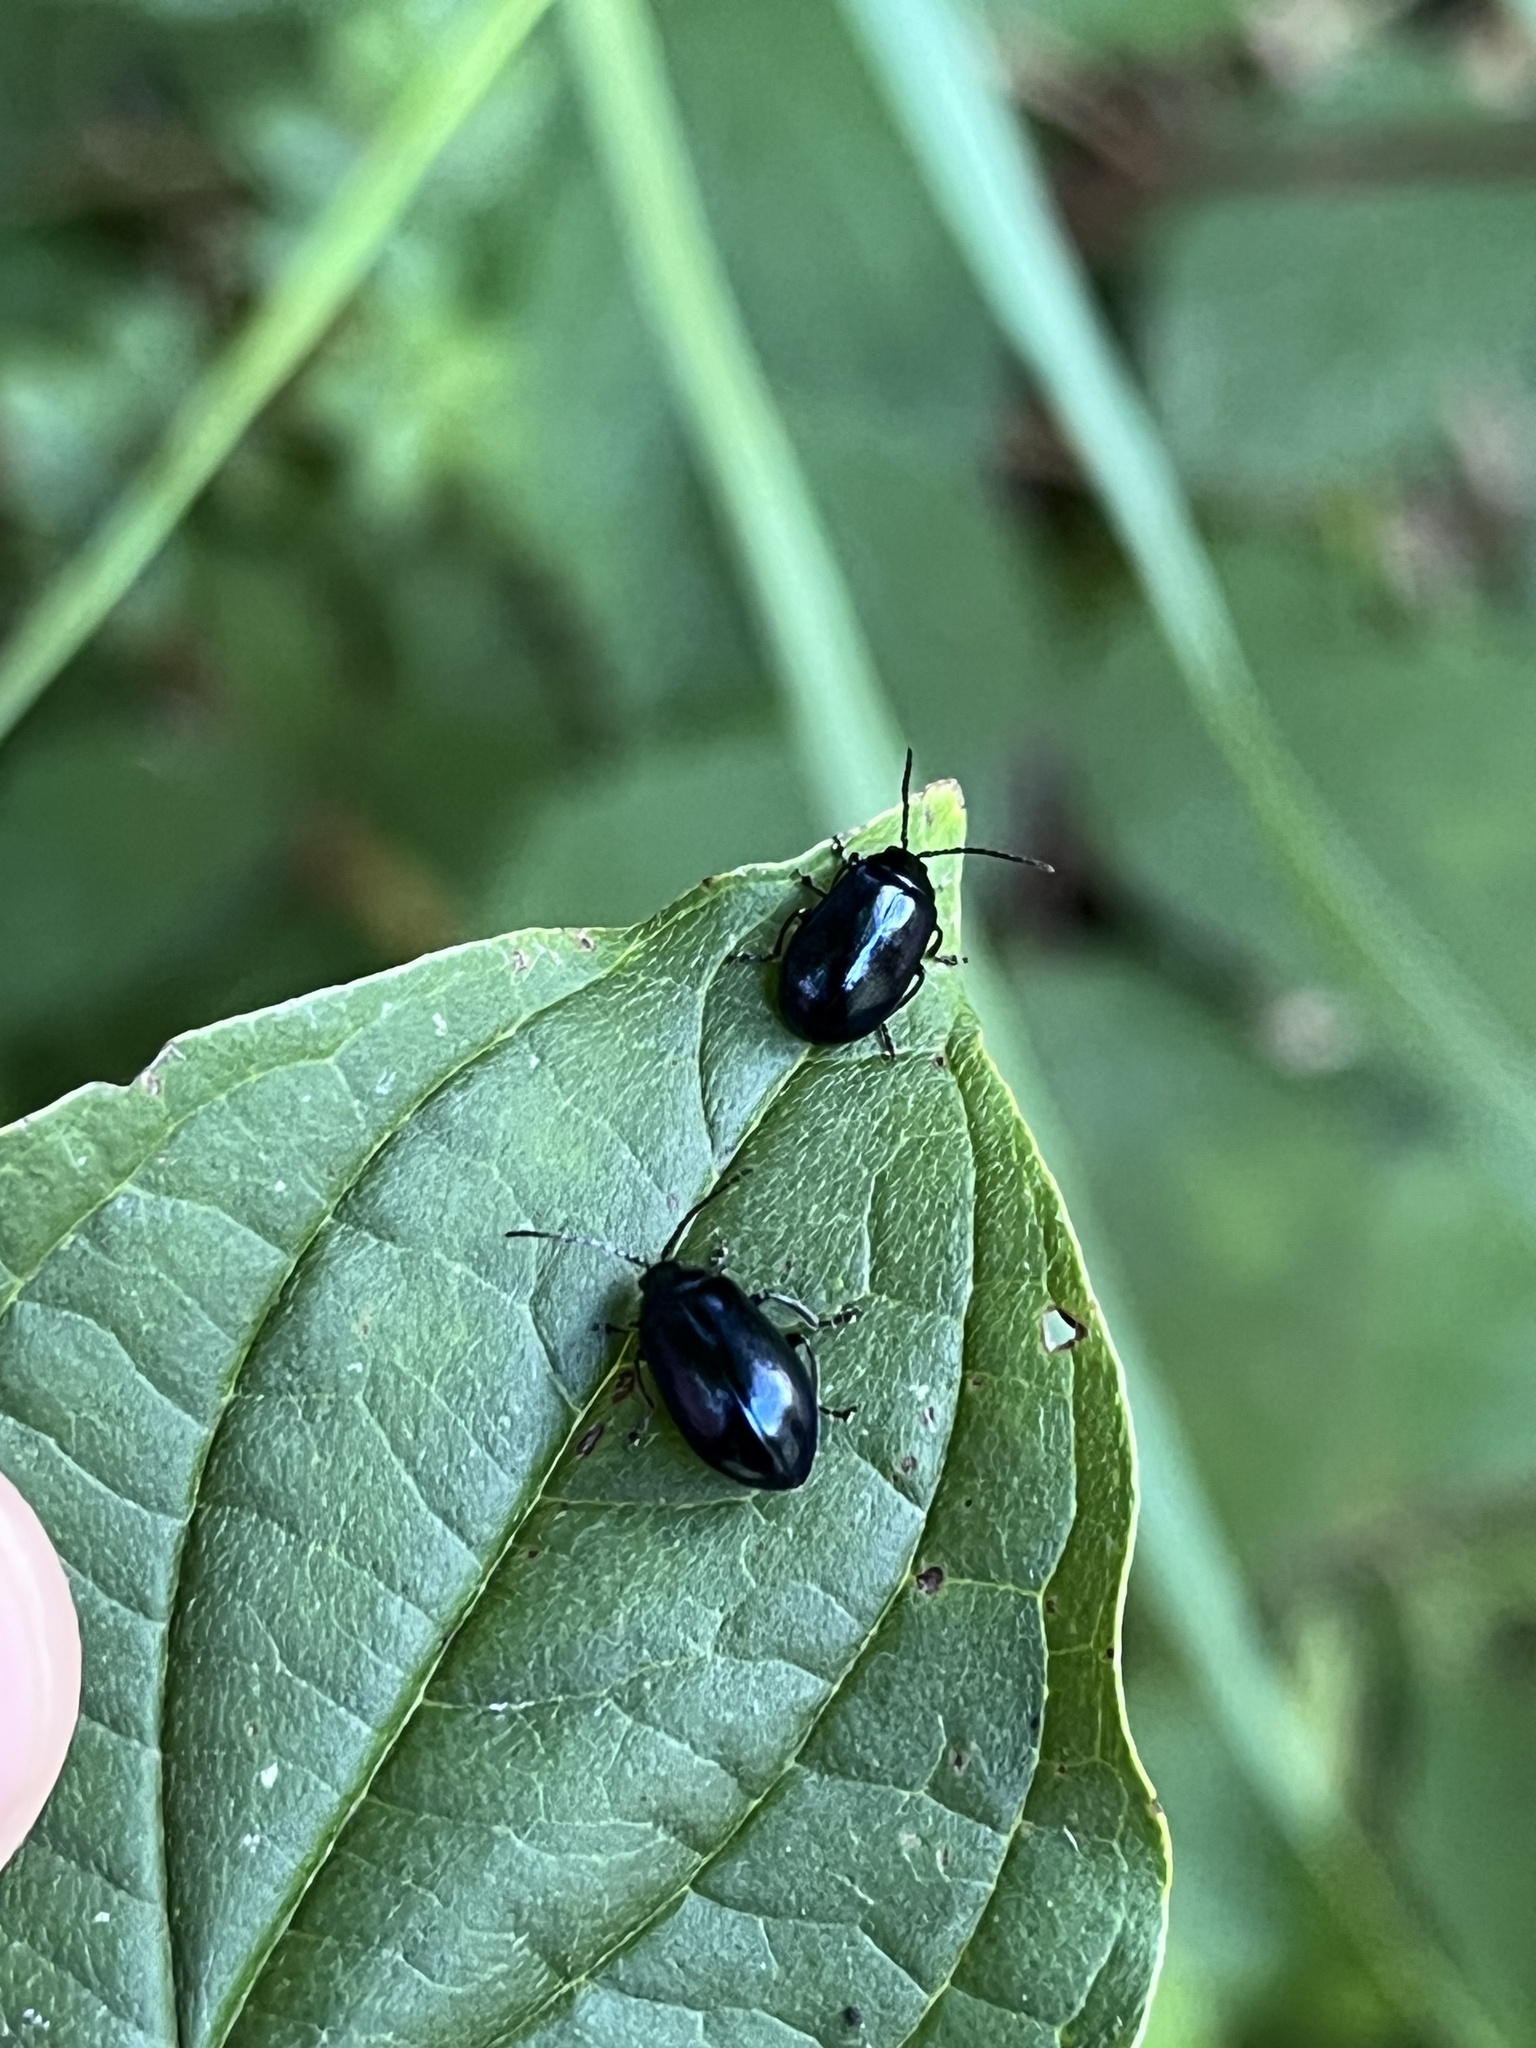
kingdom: Animalia
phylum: Arthropoda
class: Insecta
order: Coleoptera
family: Chrysomelidae
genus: Agelastica
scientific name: Agelastica alni
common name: Alder leaf beetle
